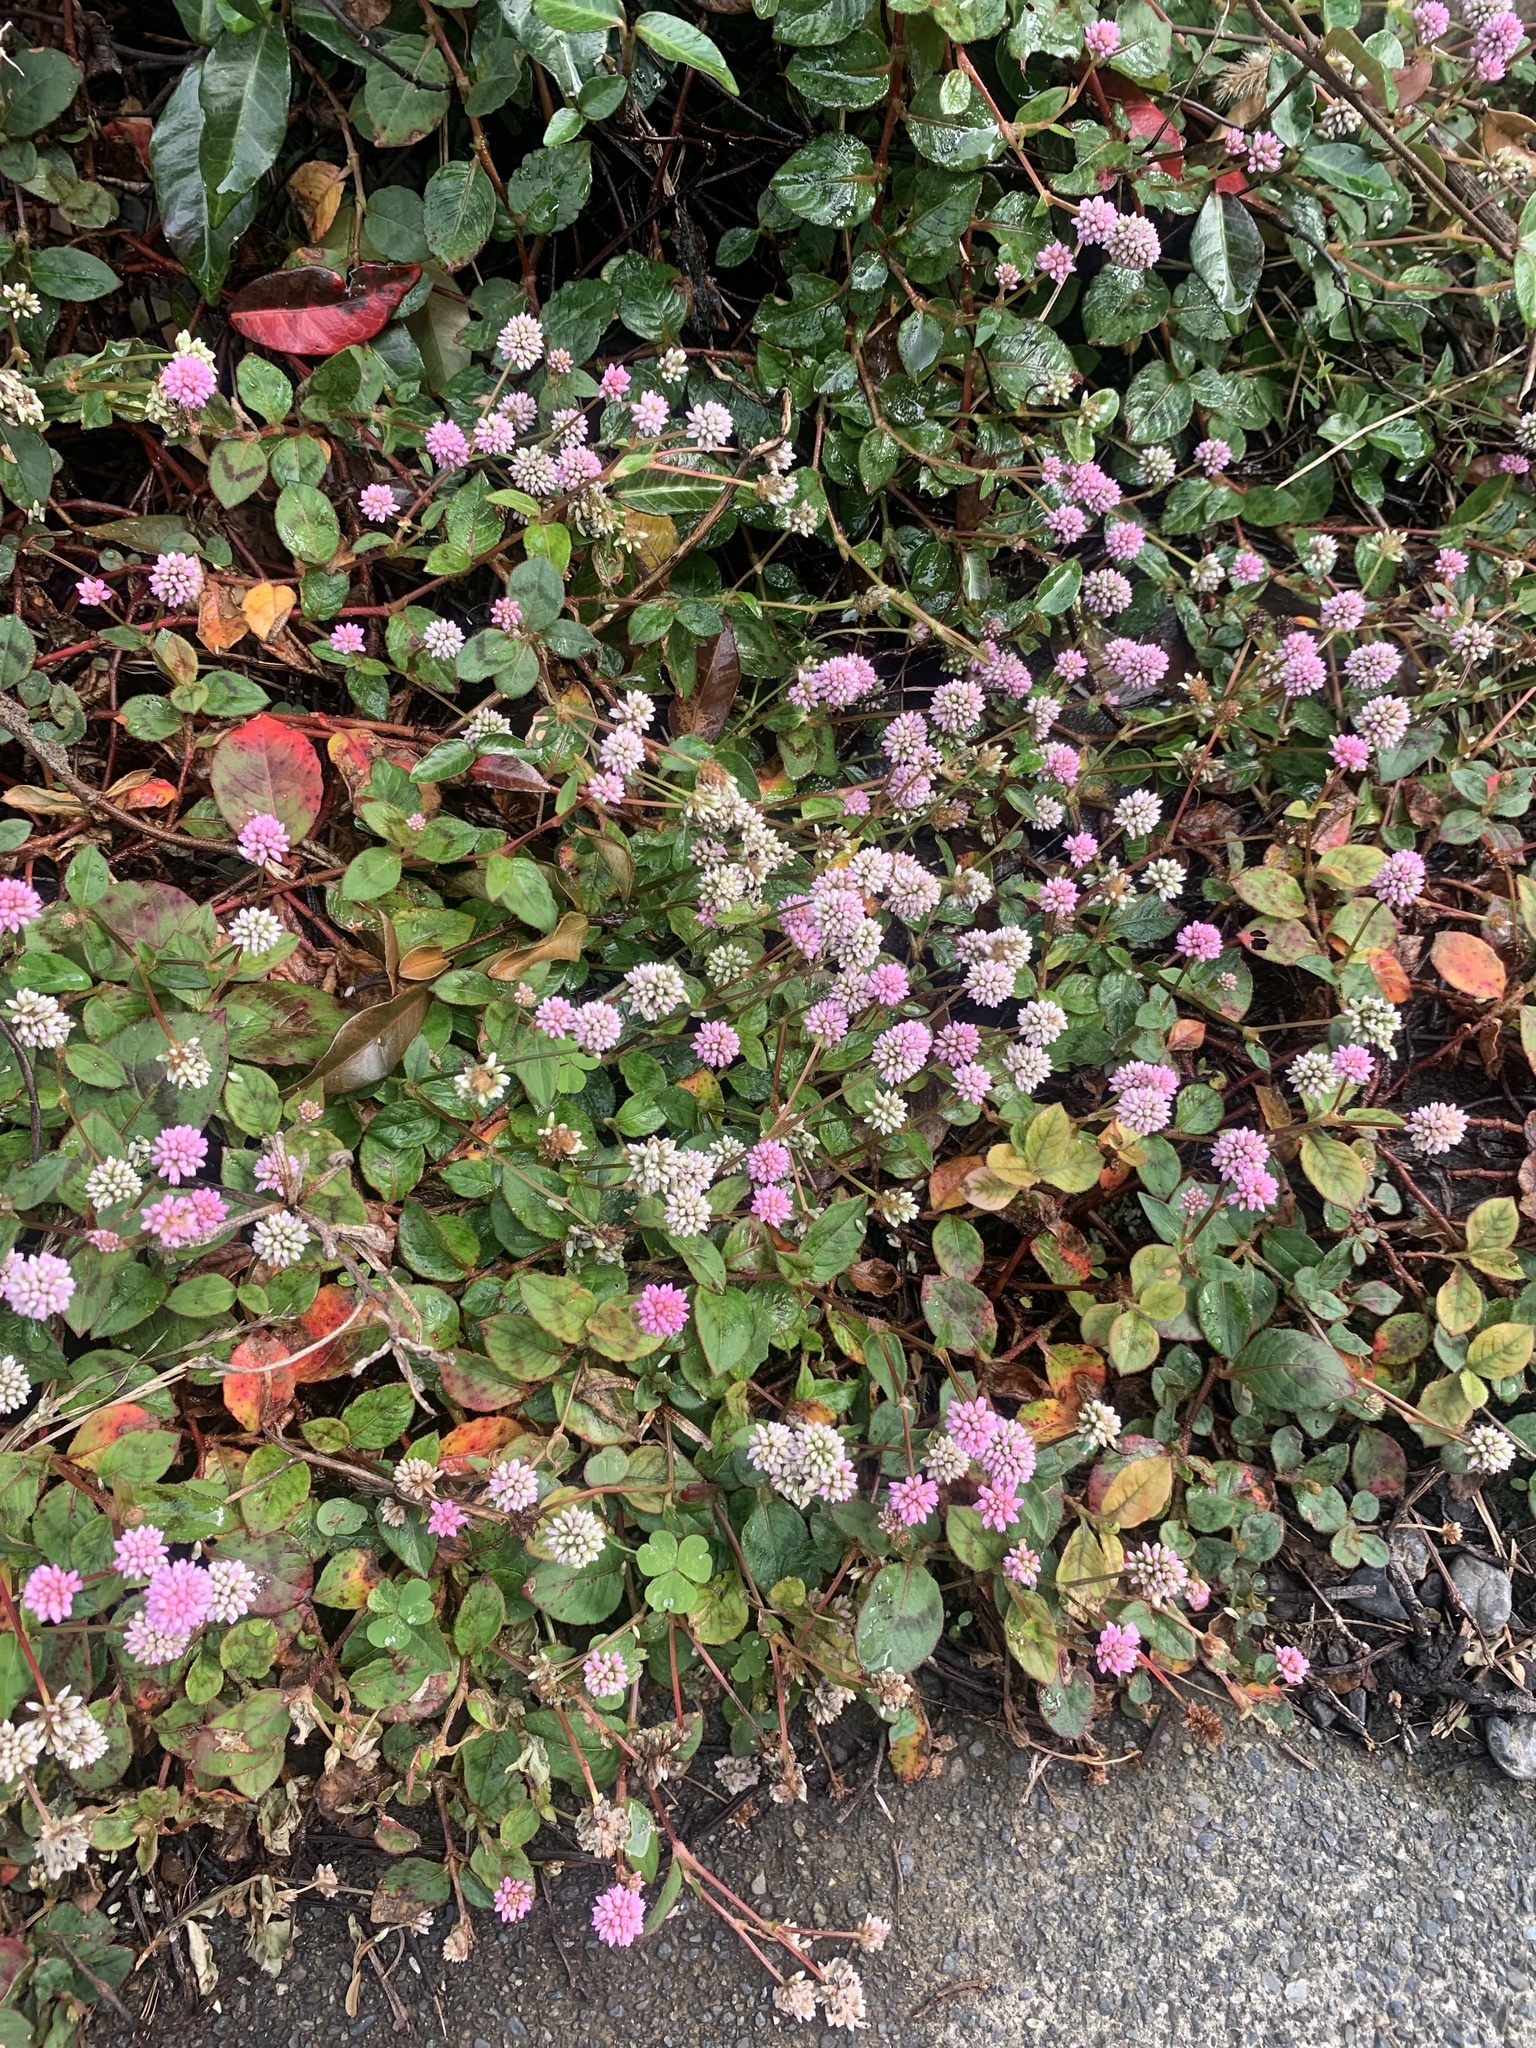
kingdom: Plantae
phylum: Tracheophyta
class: Magnoliopsida
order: Caryophyllales
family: Polygonaceae
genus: Persicaria
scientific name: Persicaria capitata
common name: Pinkhead smartweed
